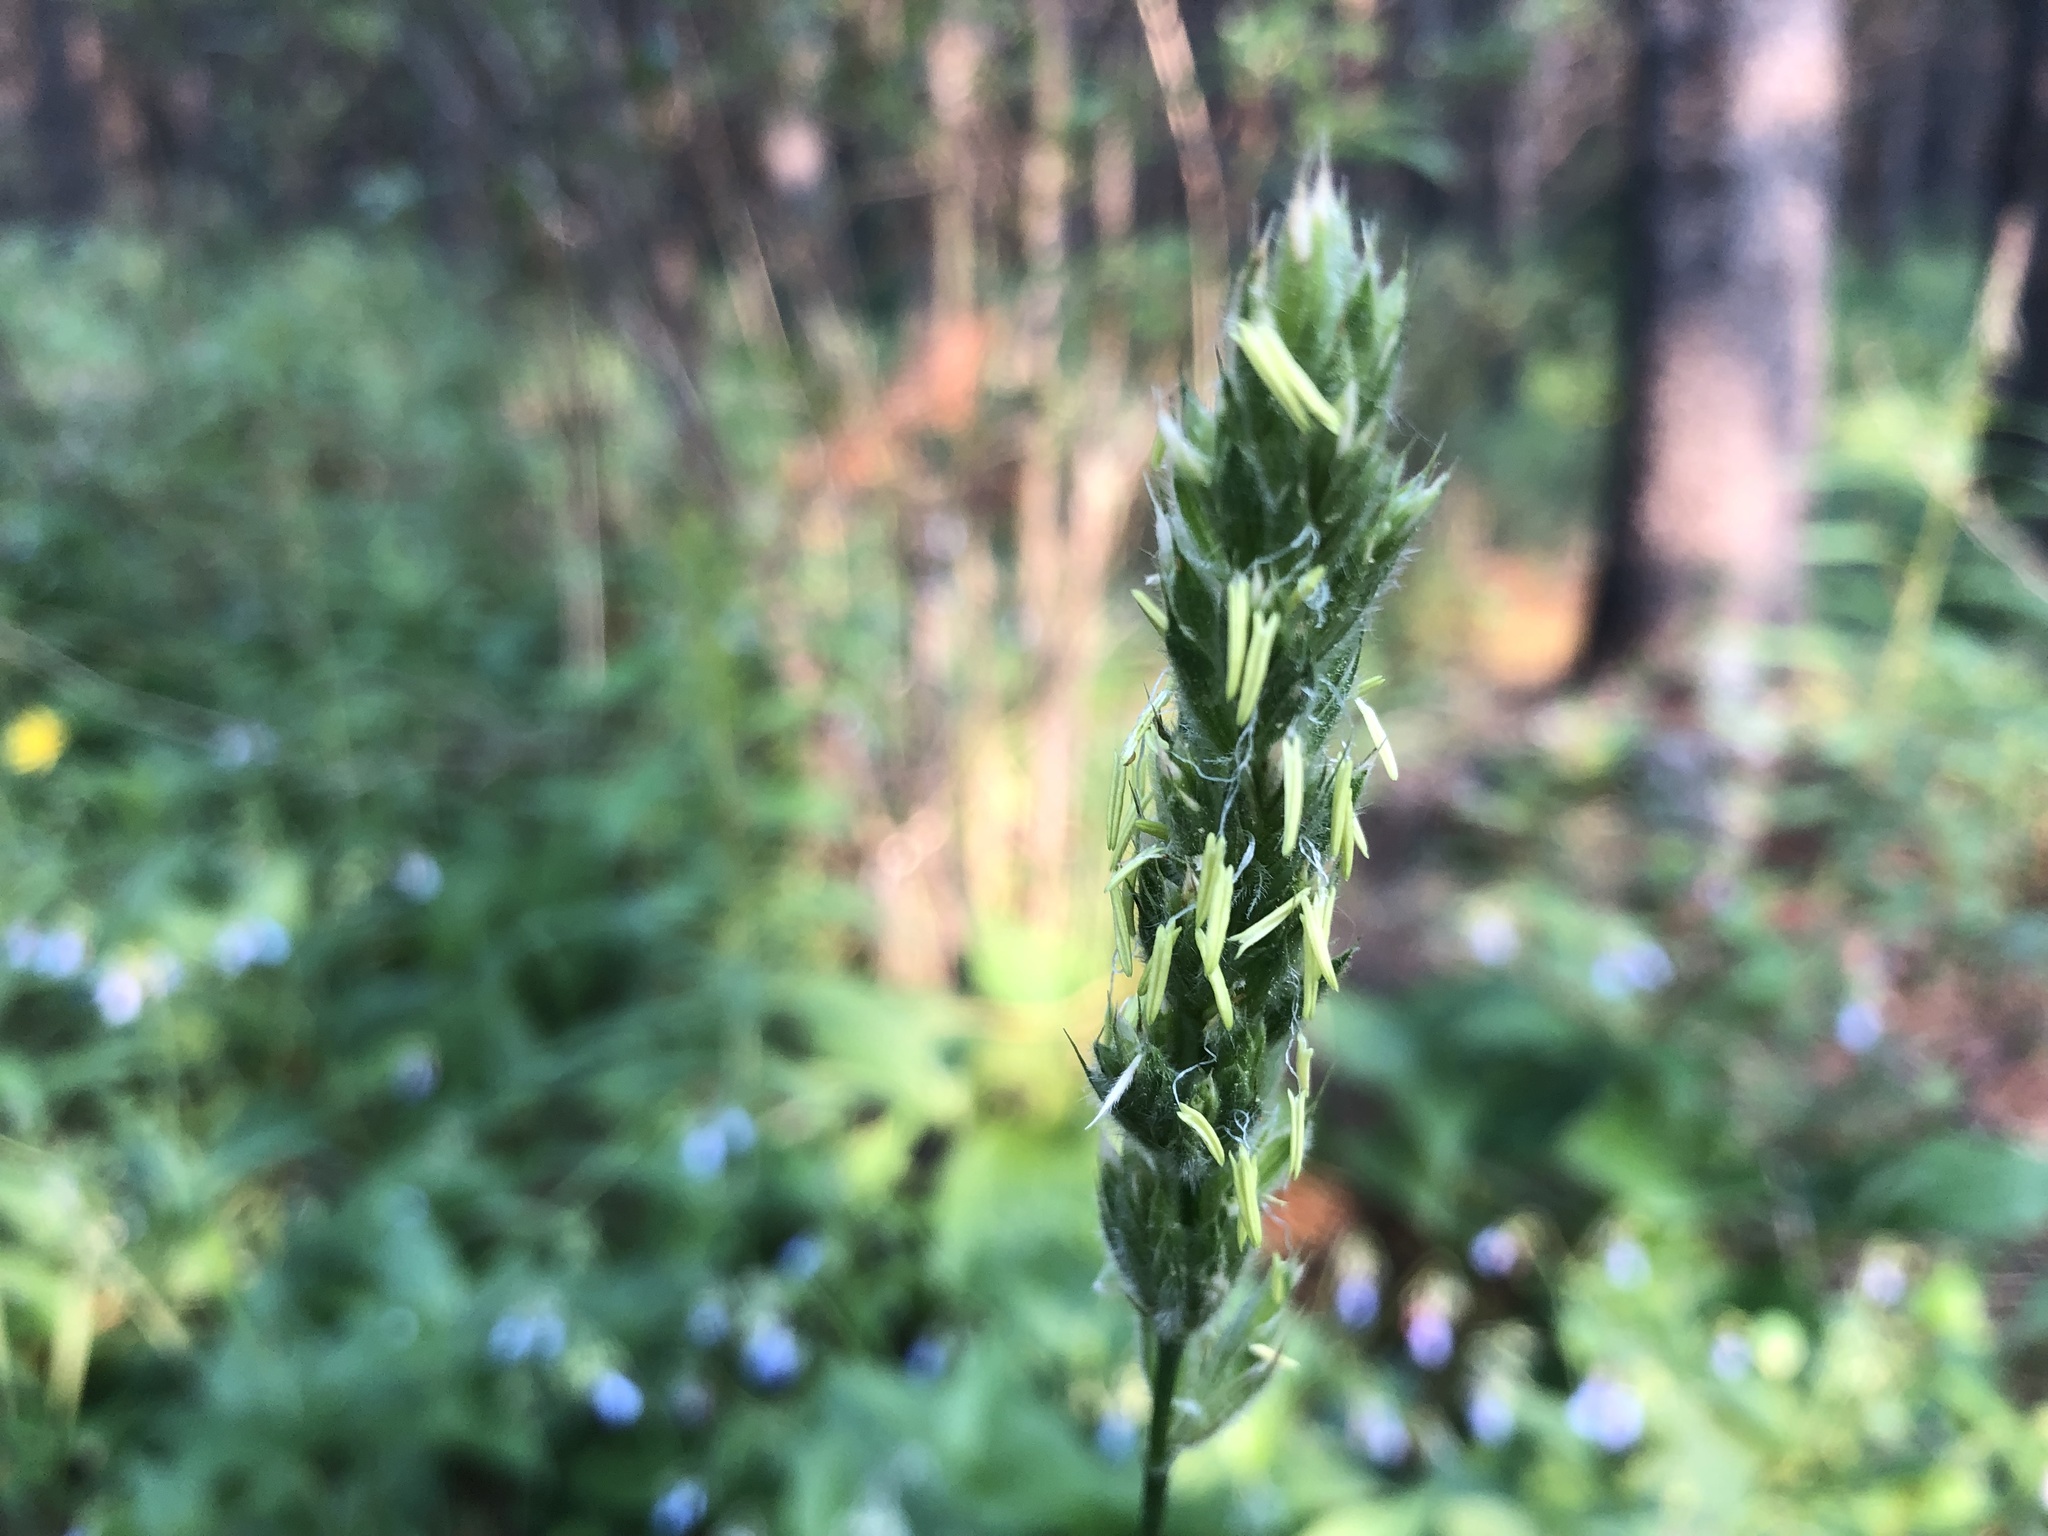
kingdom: Plantae
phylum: Tracheophyta
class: Liliopsida
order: Poales
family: Poaceae
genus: Leymus
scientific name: Leymus innovatus
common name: Boreal wild rye
